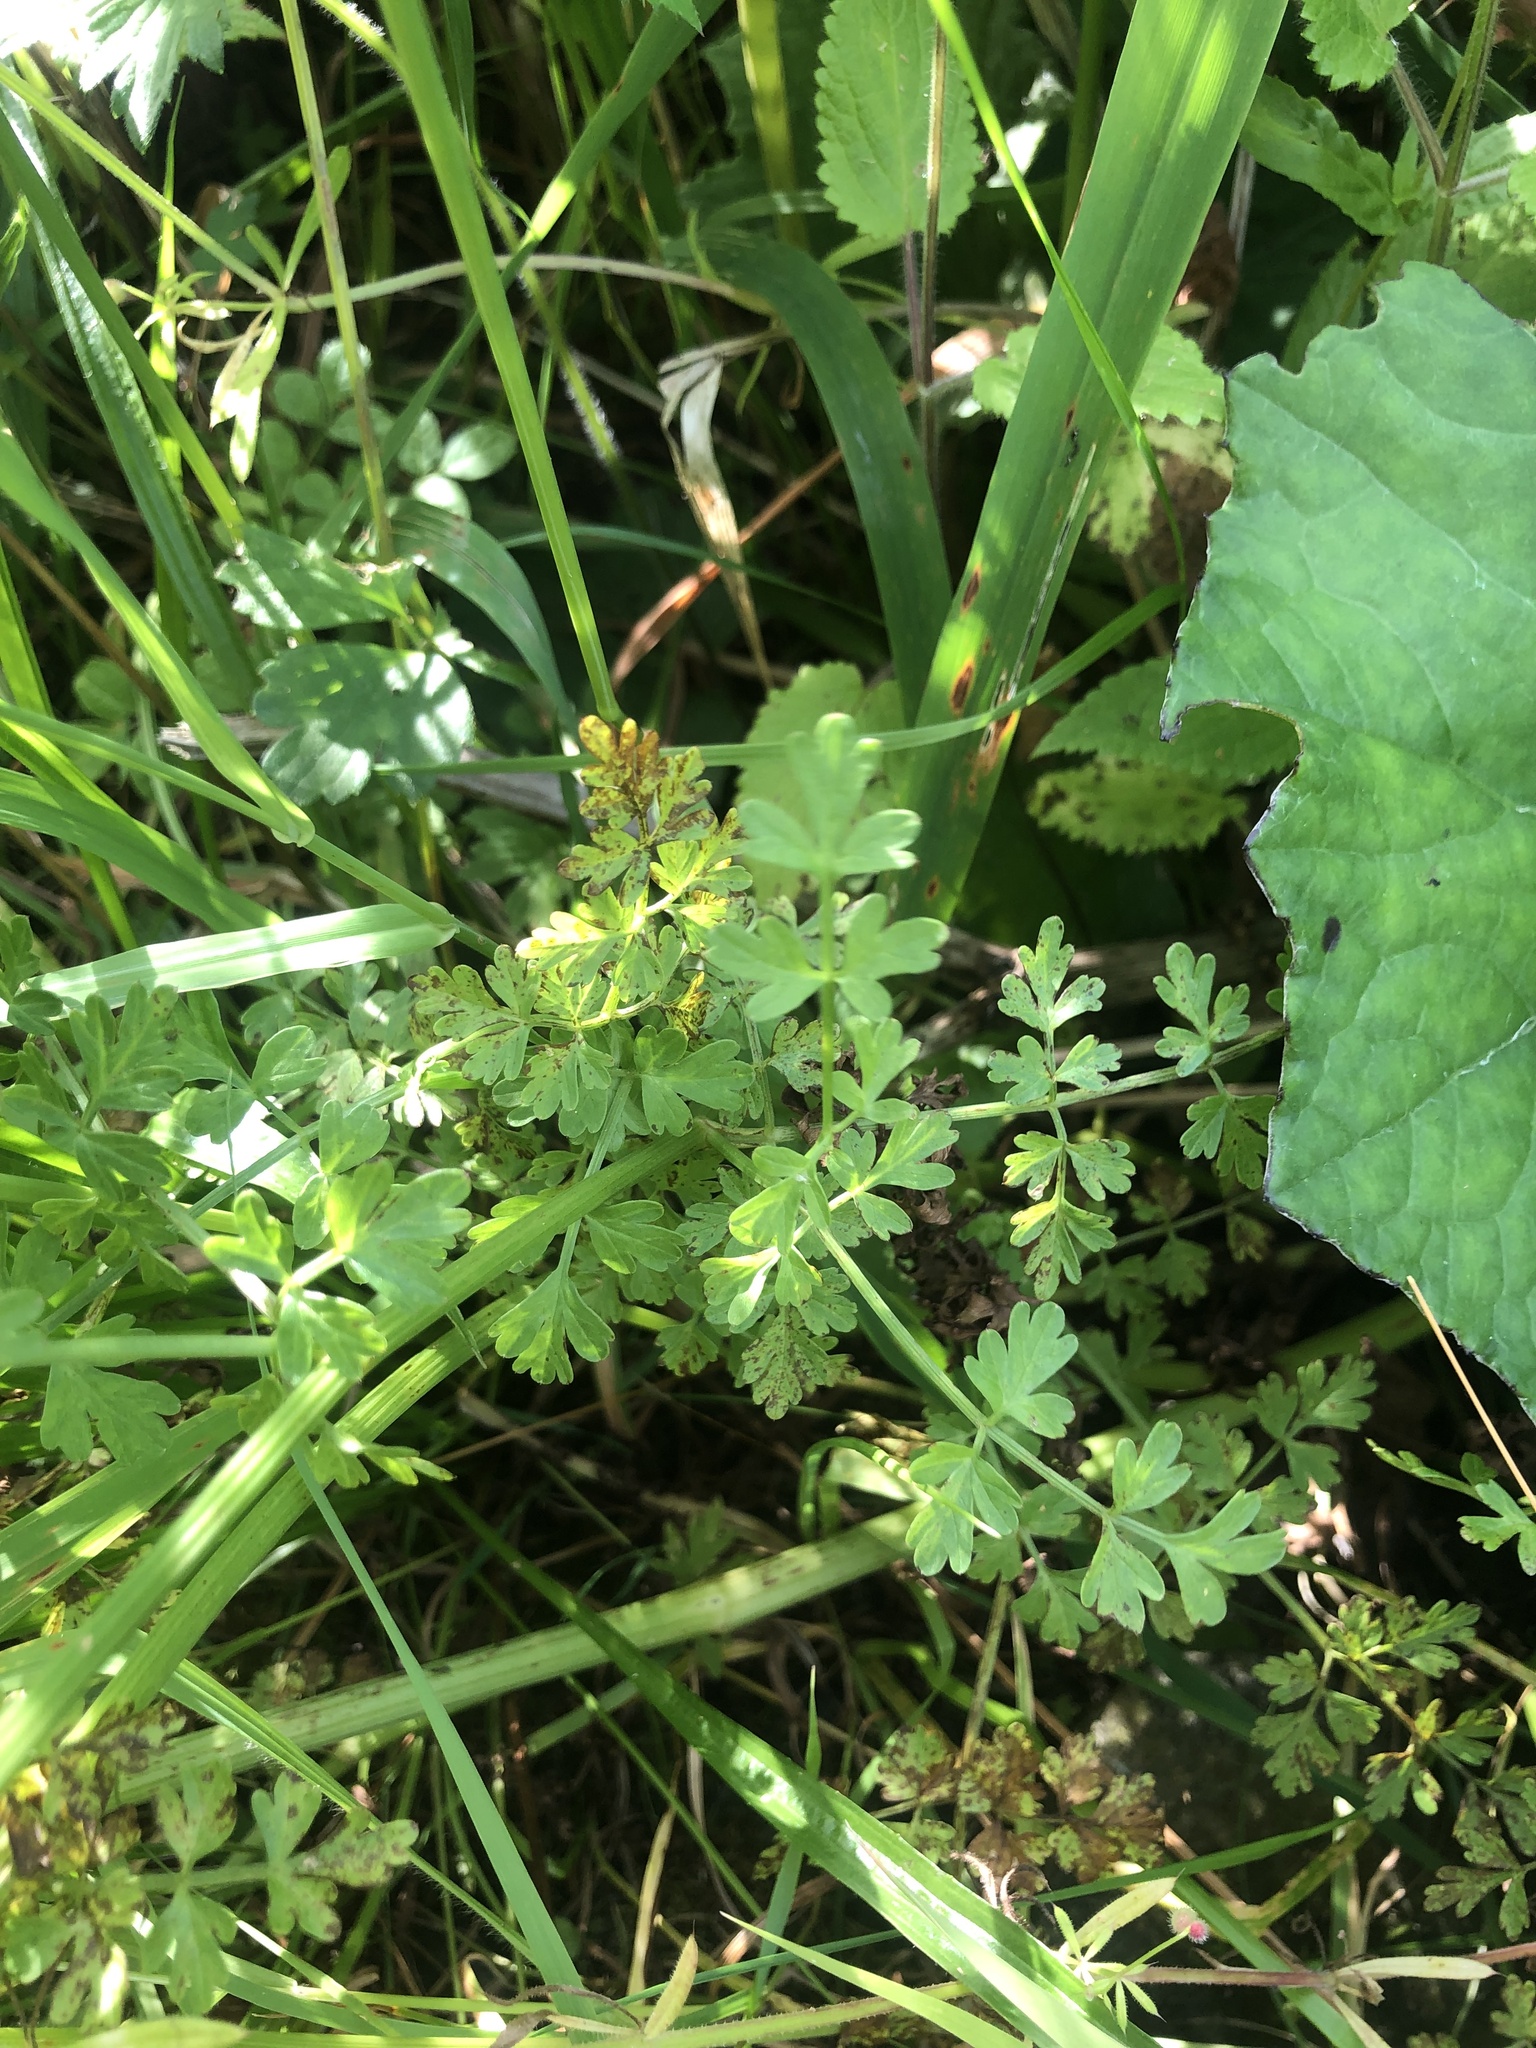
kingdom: Plantae
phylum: Tracheophyta
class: Magnoliopsida
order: Apiales
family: Apiaceae
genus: Oenanthe
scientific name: Oenanthe crocata
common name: Hemlock water-dropwort
